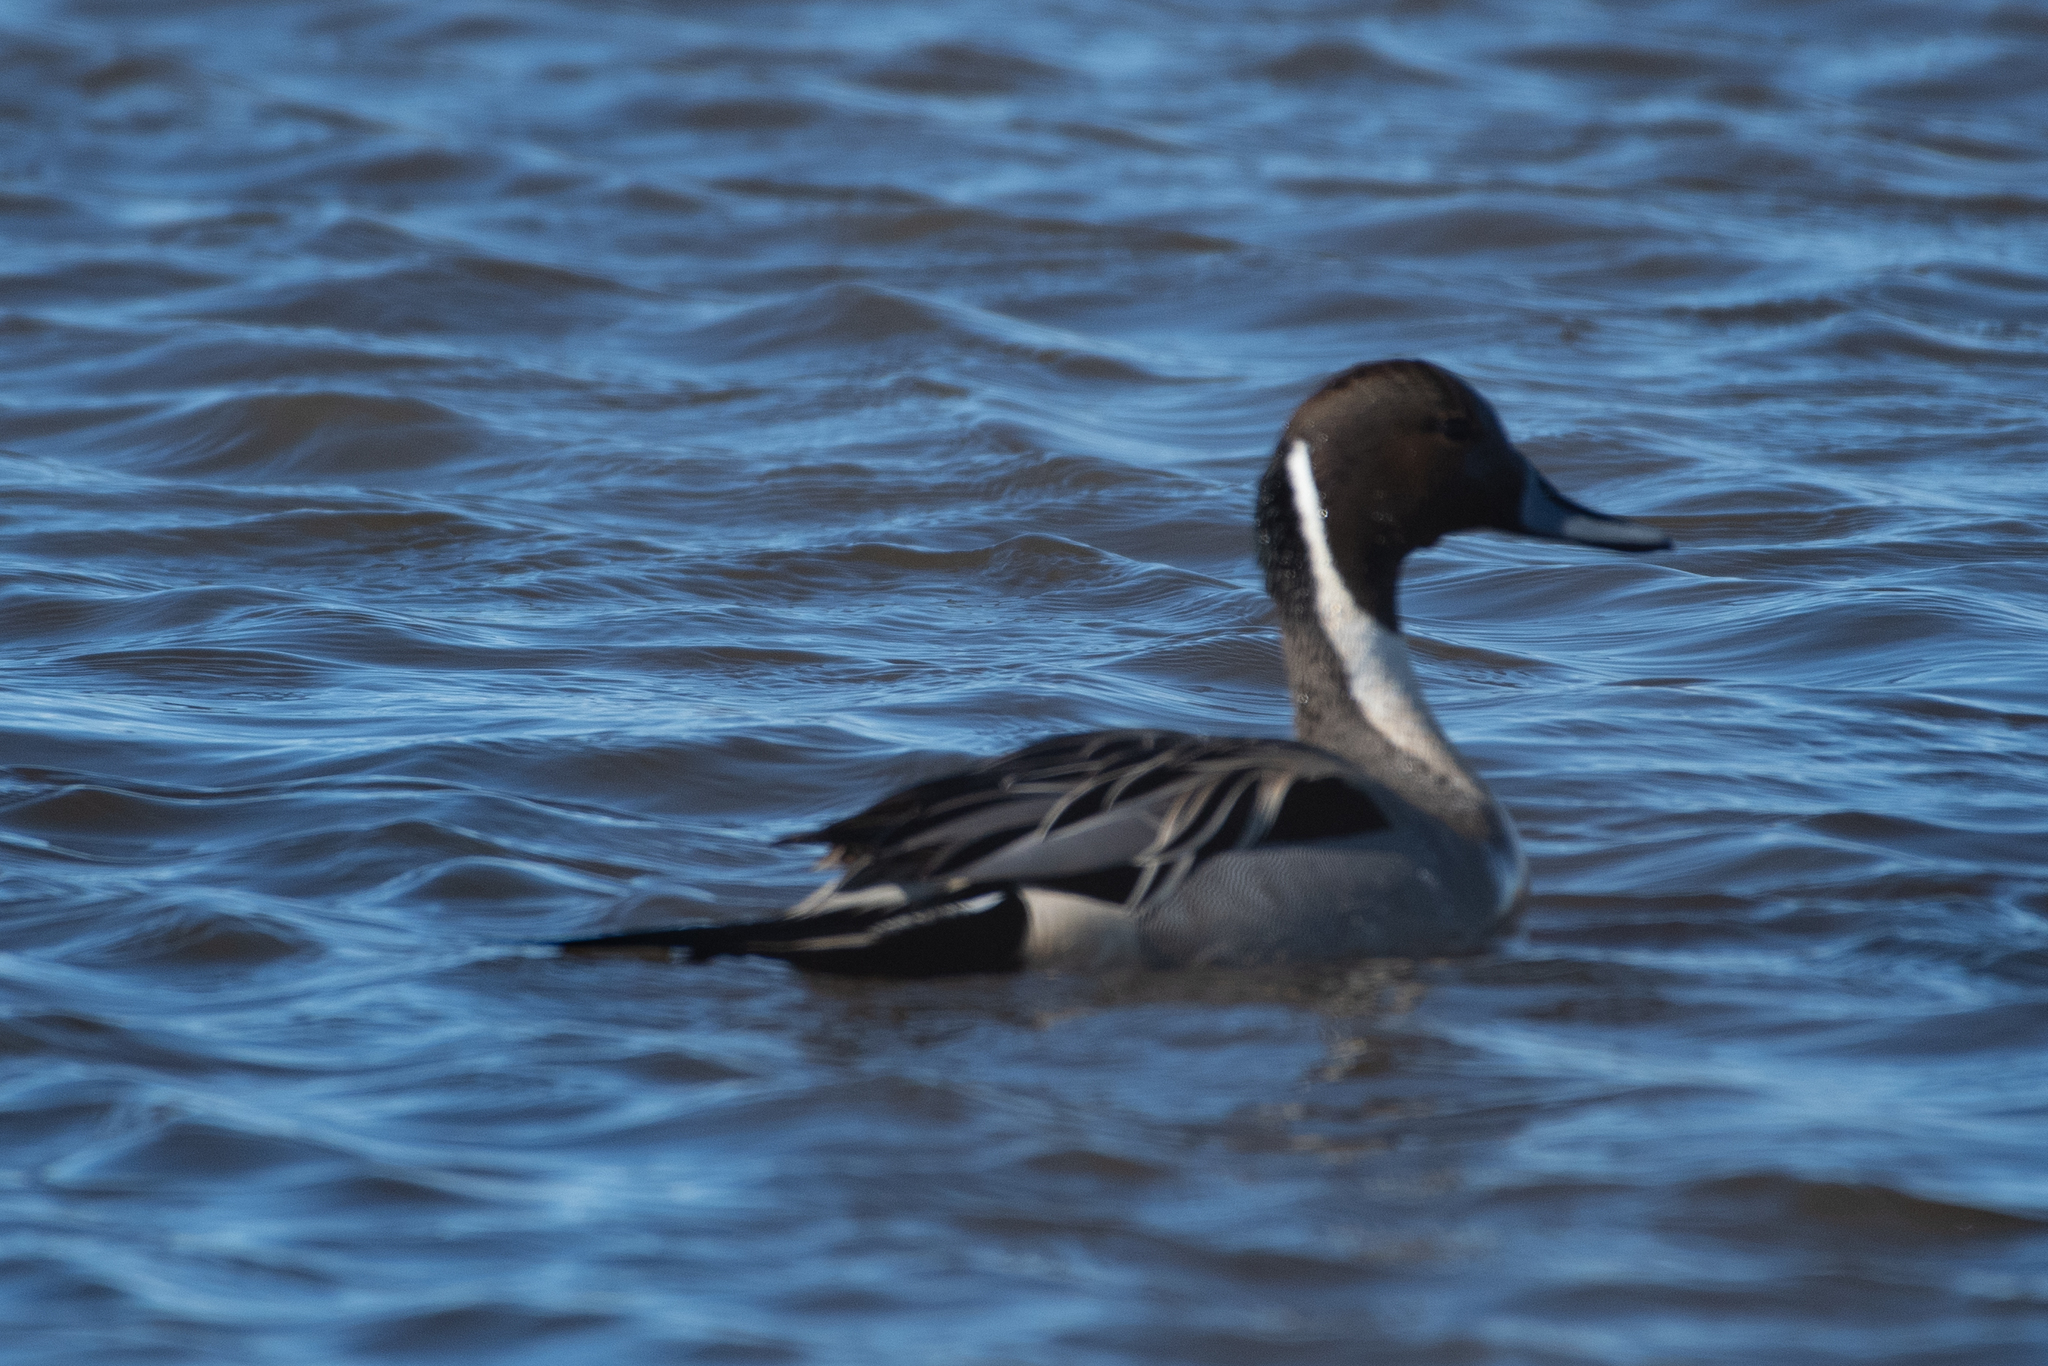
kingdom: Animalia
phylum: Chordata
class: Aves
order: Anseriformes
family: Anatidae
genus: Anas
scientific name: Anas acuta
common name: Northern pintail
